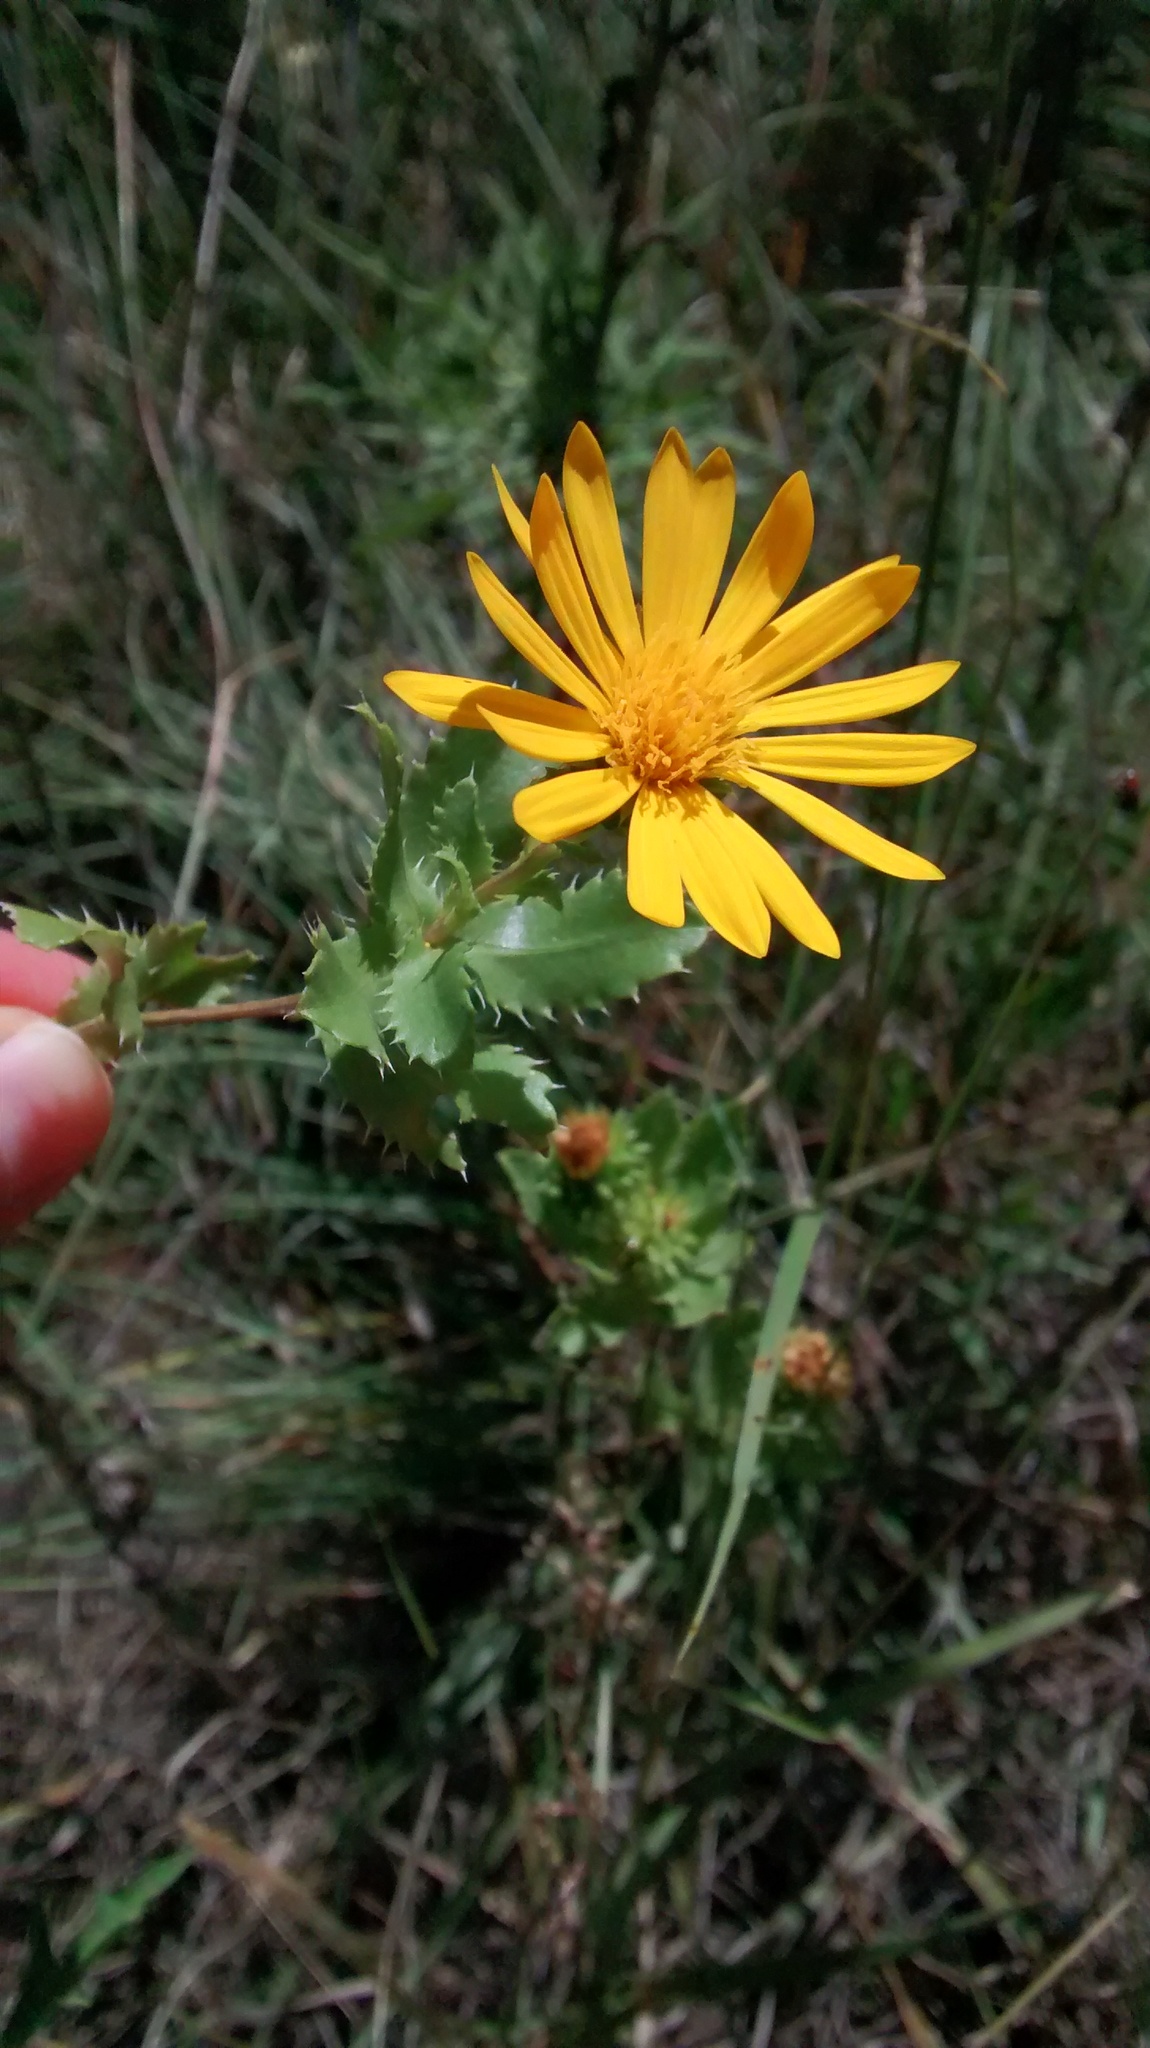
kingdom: Plantae
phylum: Tracheophyta
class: Magnoliopsida
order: Asterales
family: Asteraceae
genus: Grindelia
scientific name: Grindelia ciliata
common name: Goldenweed
